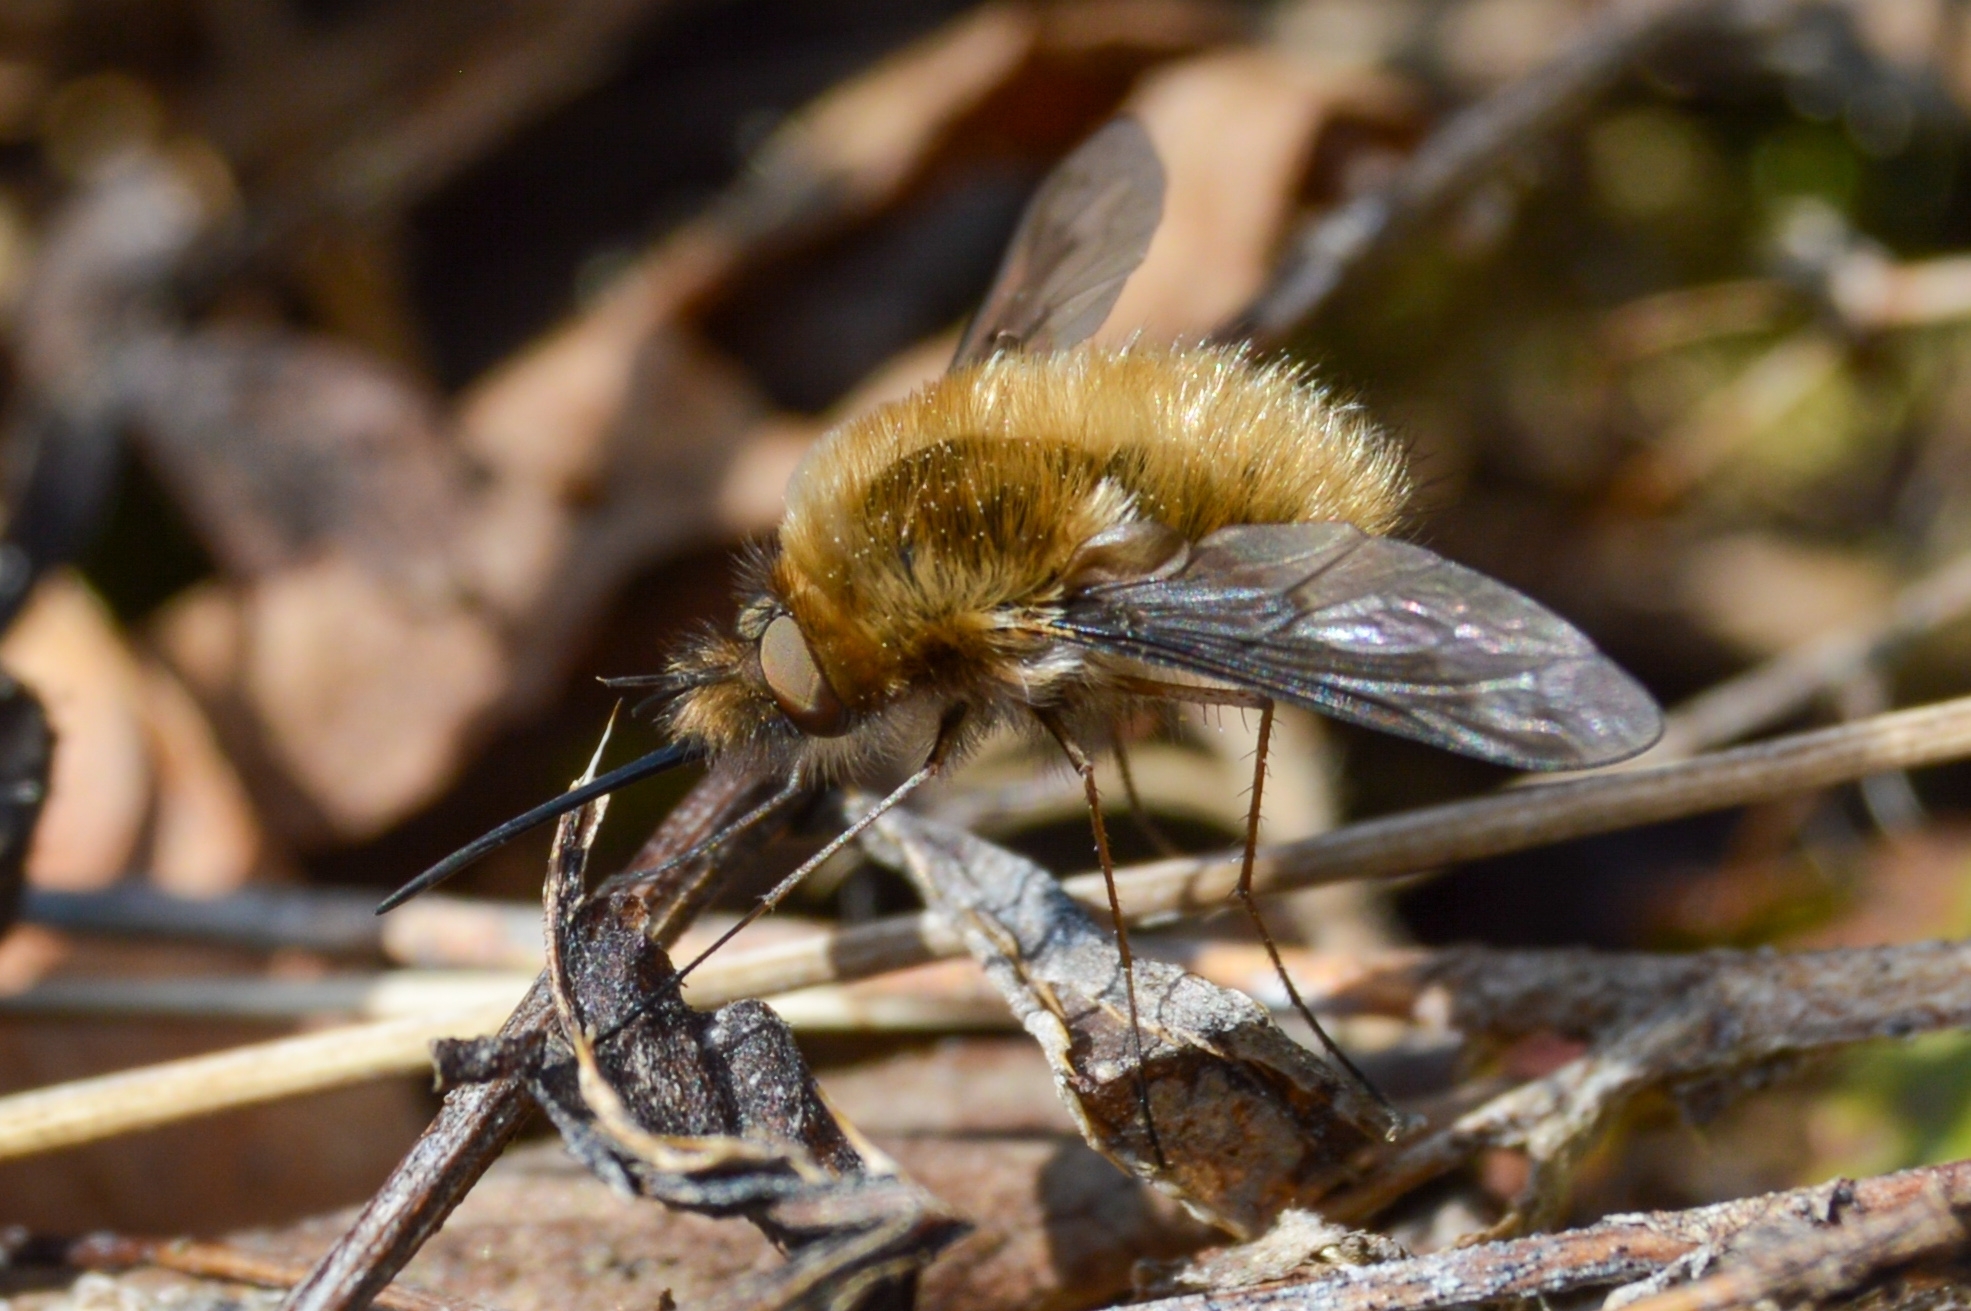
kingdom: Animalia
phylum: Arthropoda
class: Insecta
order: Diptera
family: Bombyliidae
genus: Bombylius
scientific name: Bombylius major
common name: Bee fly
